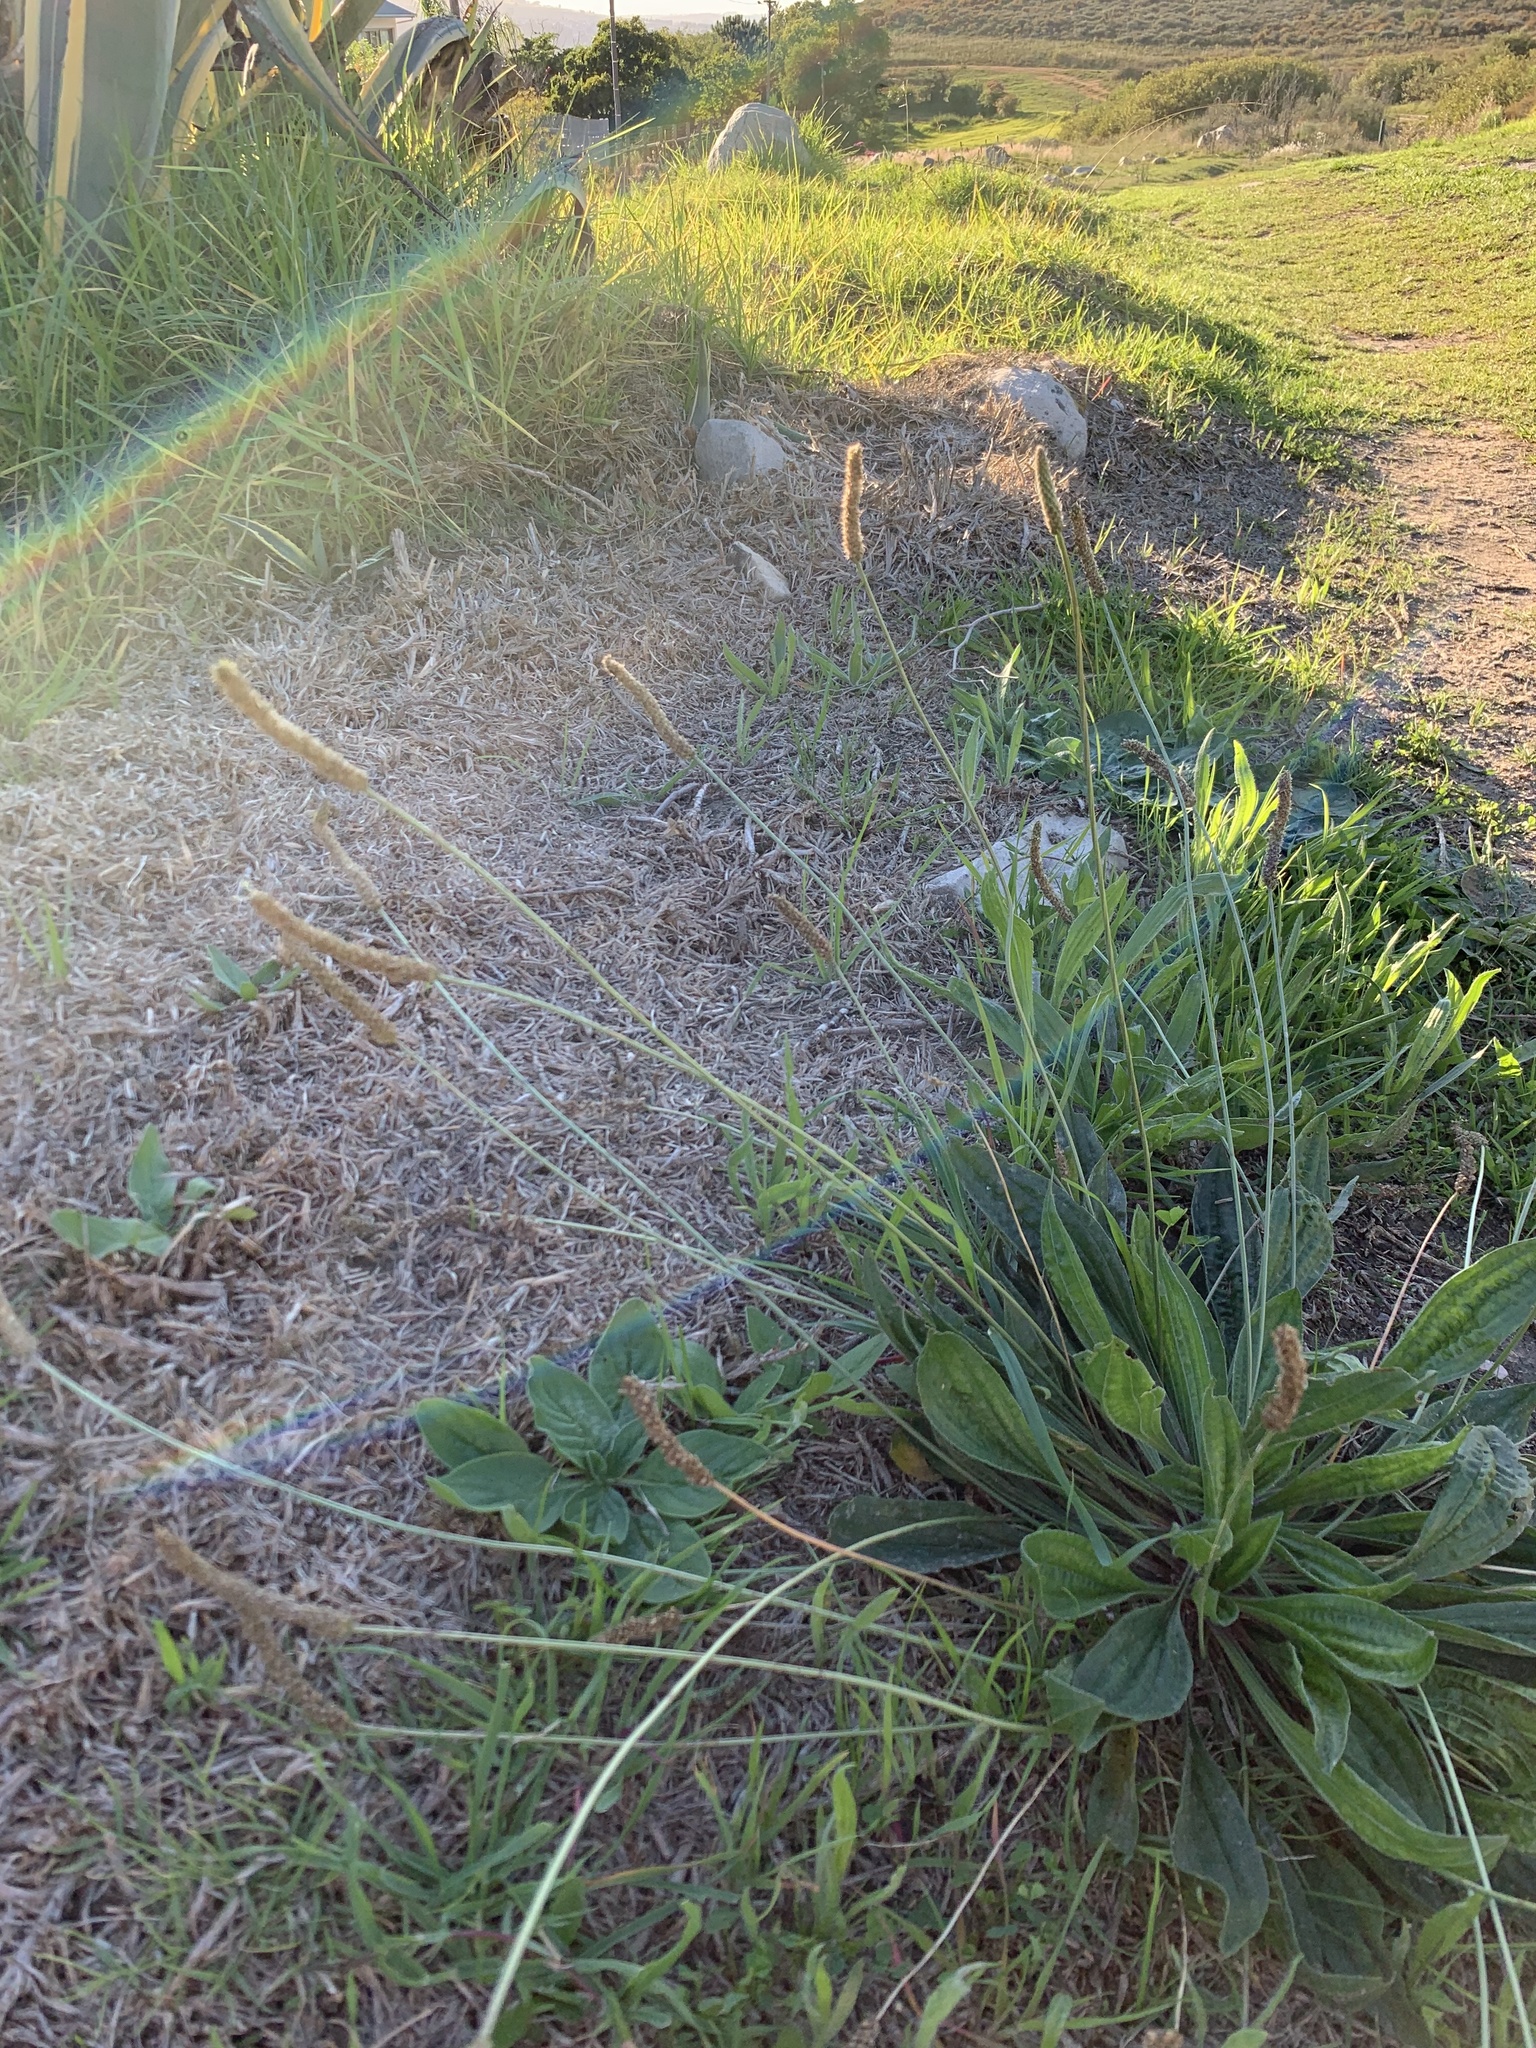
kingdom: Plantae
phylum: Tracheophyta
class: Magnoliopsida
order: Lamiales
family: Plantaginaceae
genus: Plantago
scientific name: Plantago lanceolata
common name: Ribwort plantain
